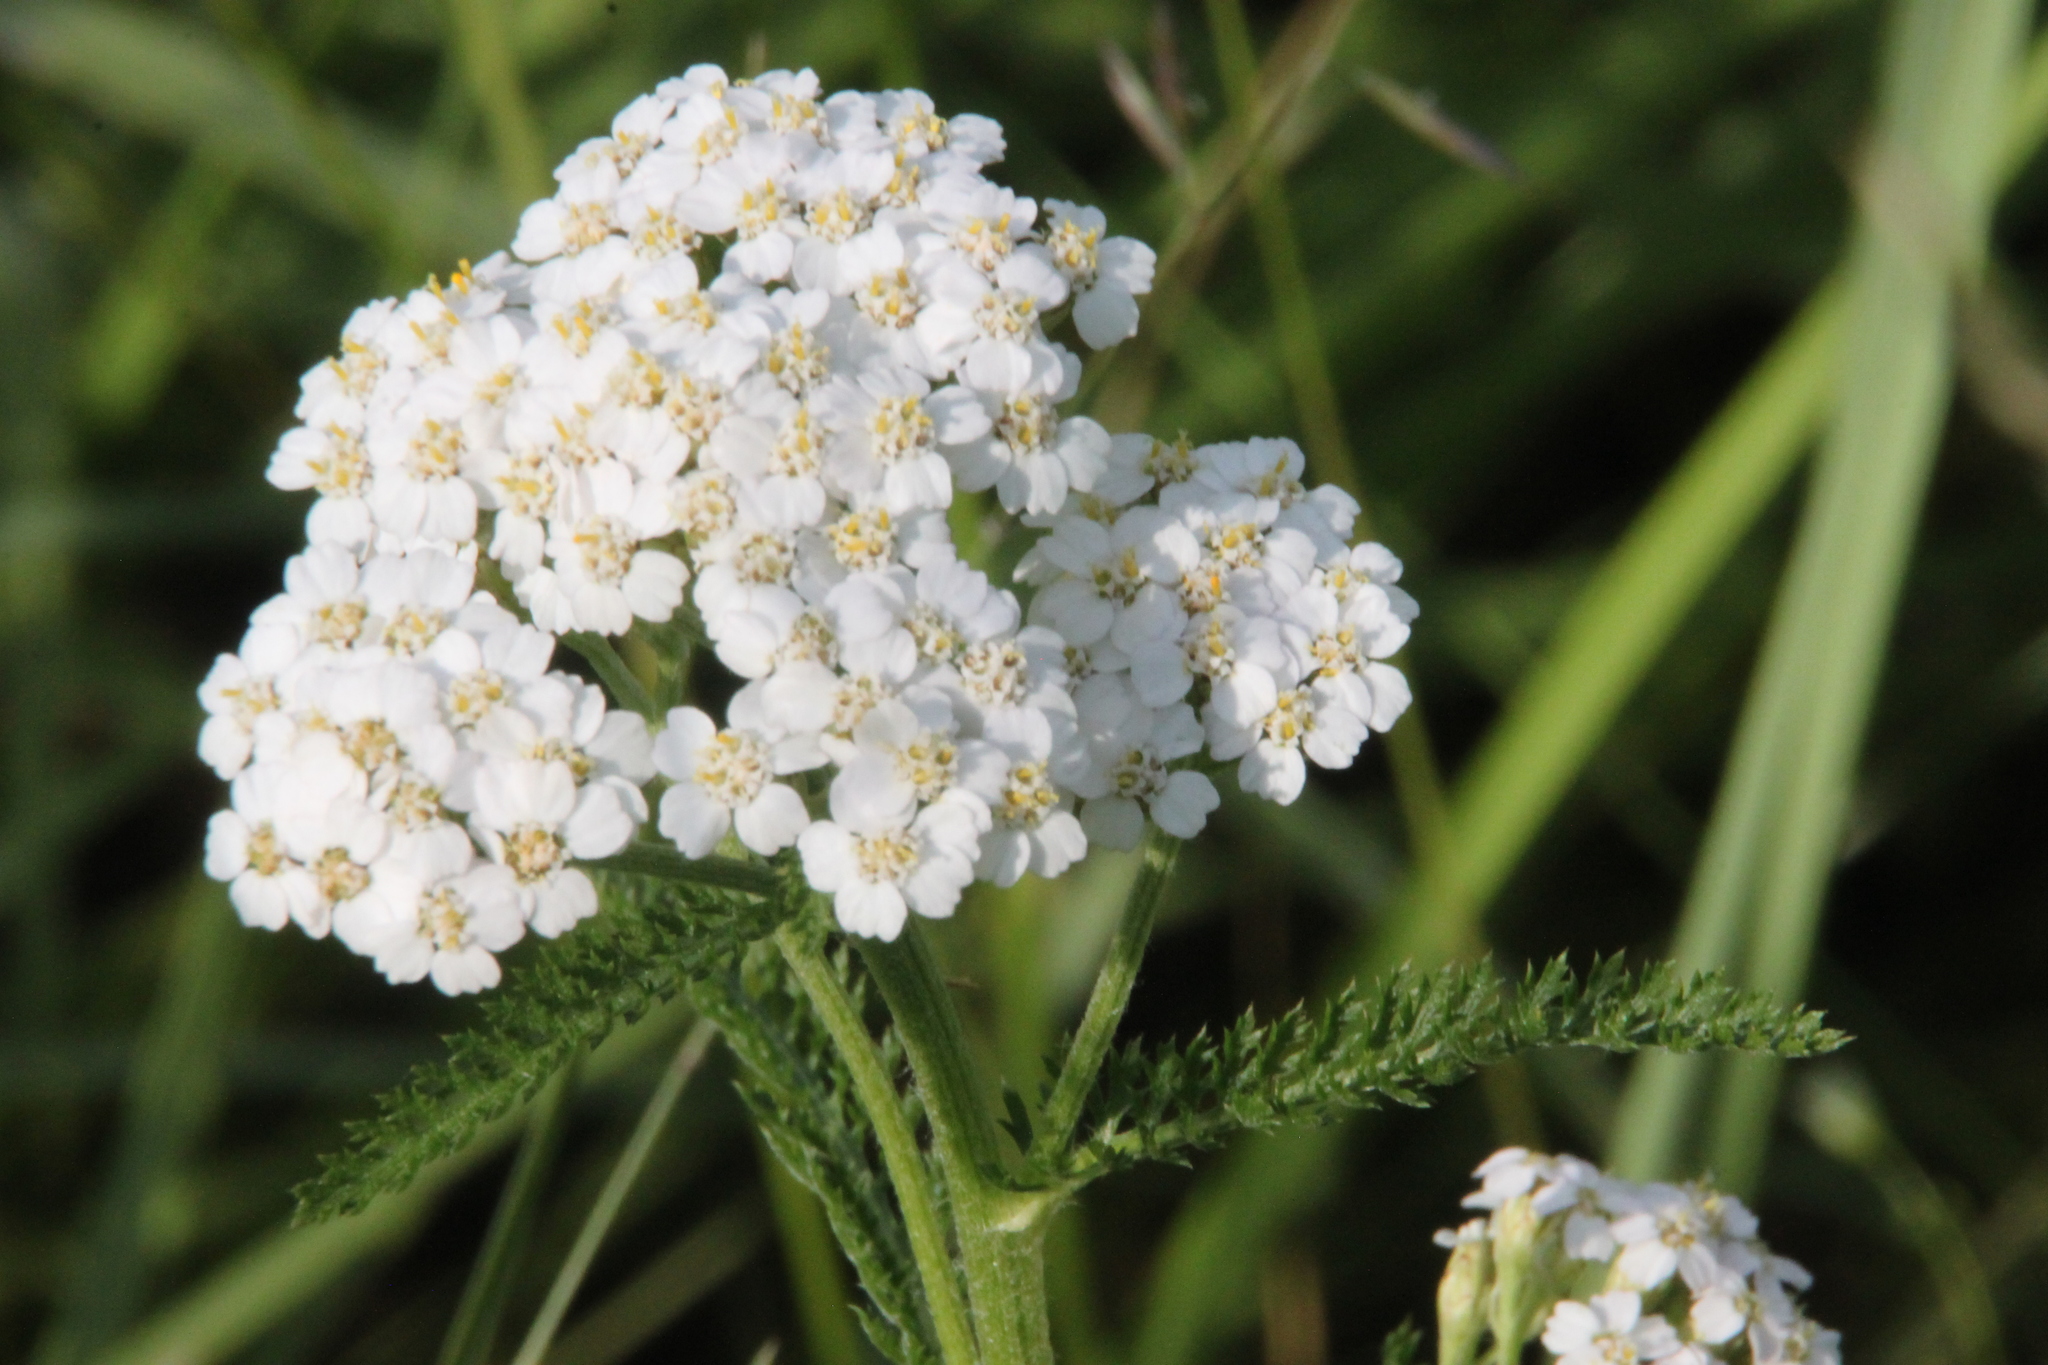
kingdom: Plantae
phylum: Tracheophyta
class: Magnoliopsida
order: Asterales
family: Asteraceae
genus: Achillea
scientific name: Achillea millefolium
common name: Yarrow
